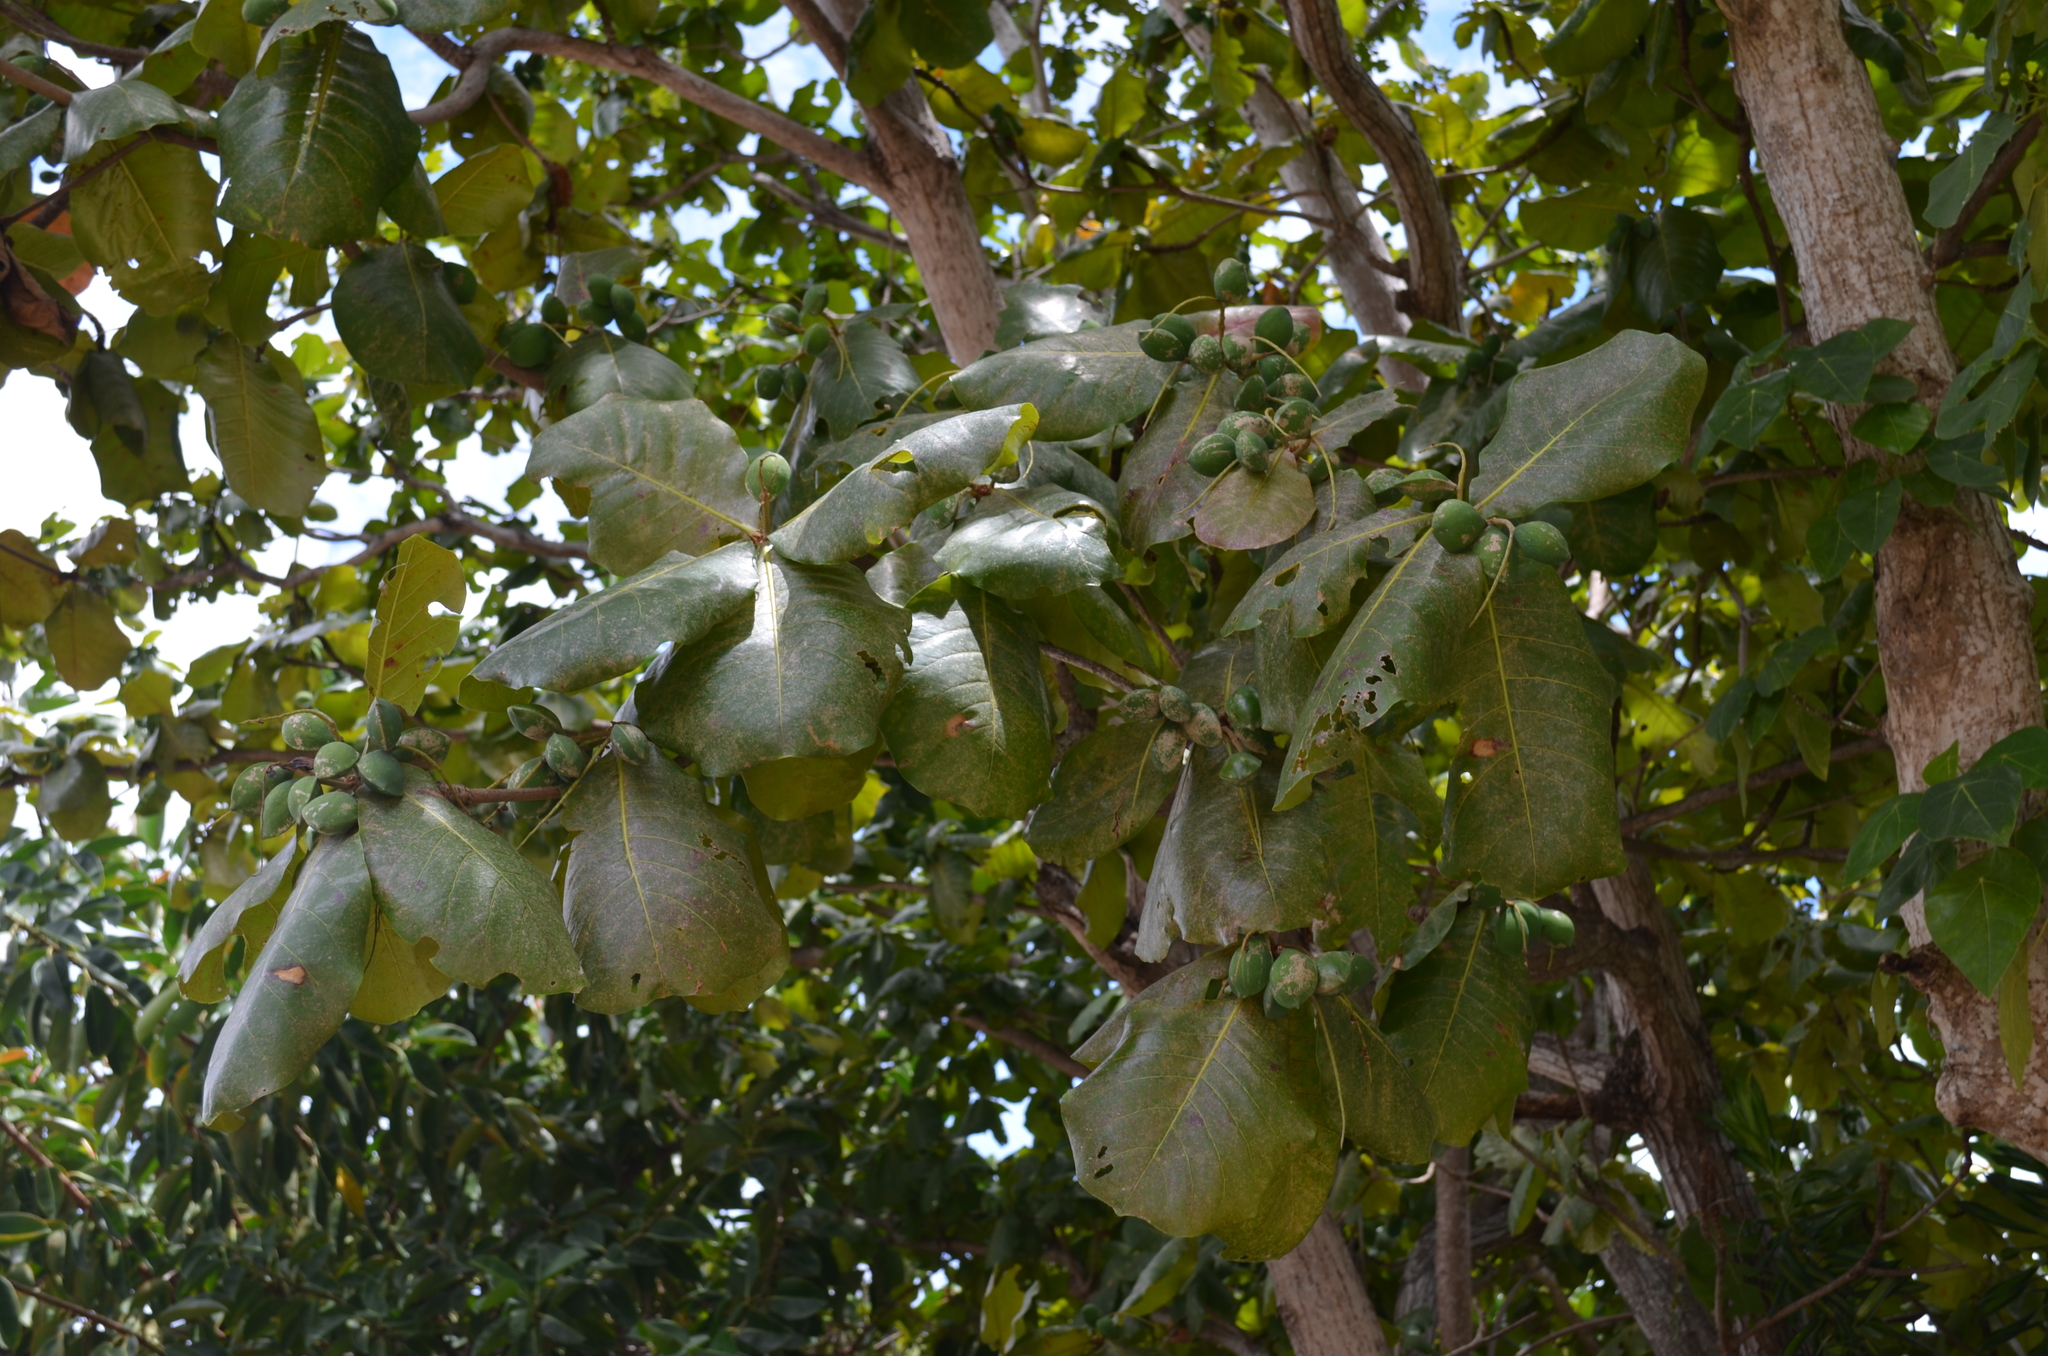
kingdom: Plantae
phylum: Tracheophyta
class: Magnoliopsida
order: Myrtales
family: Combretaceae
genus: Terminalia
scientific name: Terminalia catappa
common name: Tropical almond
